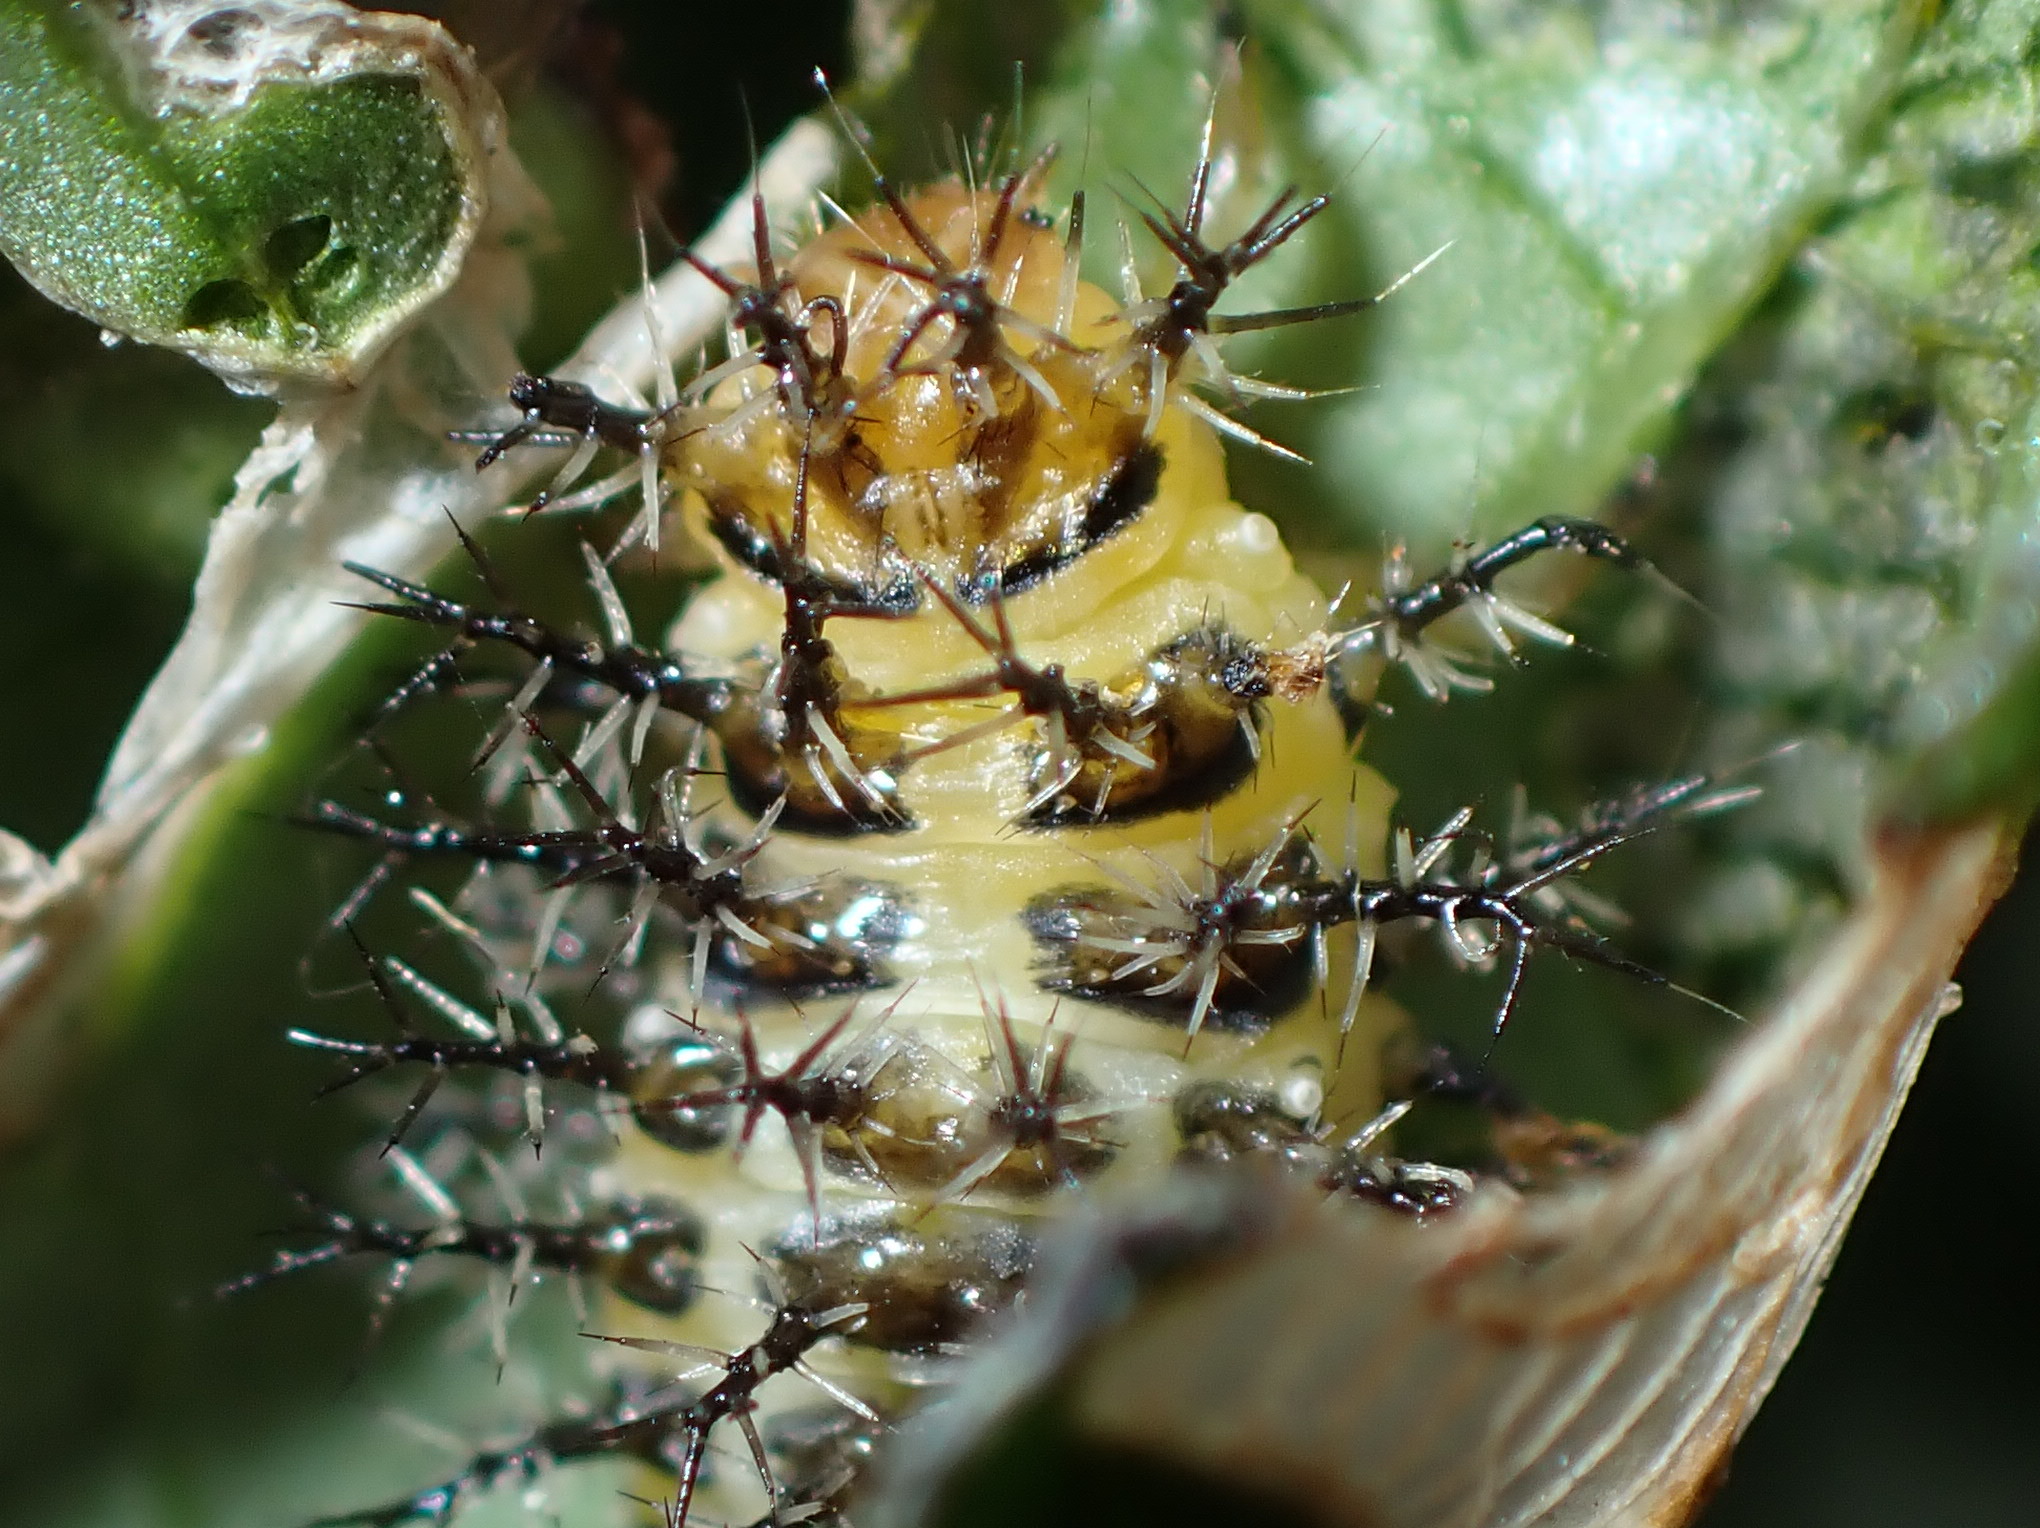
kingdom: Animalia
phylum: Arthropoda
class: Insecta
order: Coleoptera
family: Coccinellidae
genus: Henosepilachna
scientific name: Henosepilachna vigintioctopunctata
